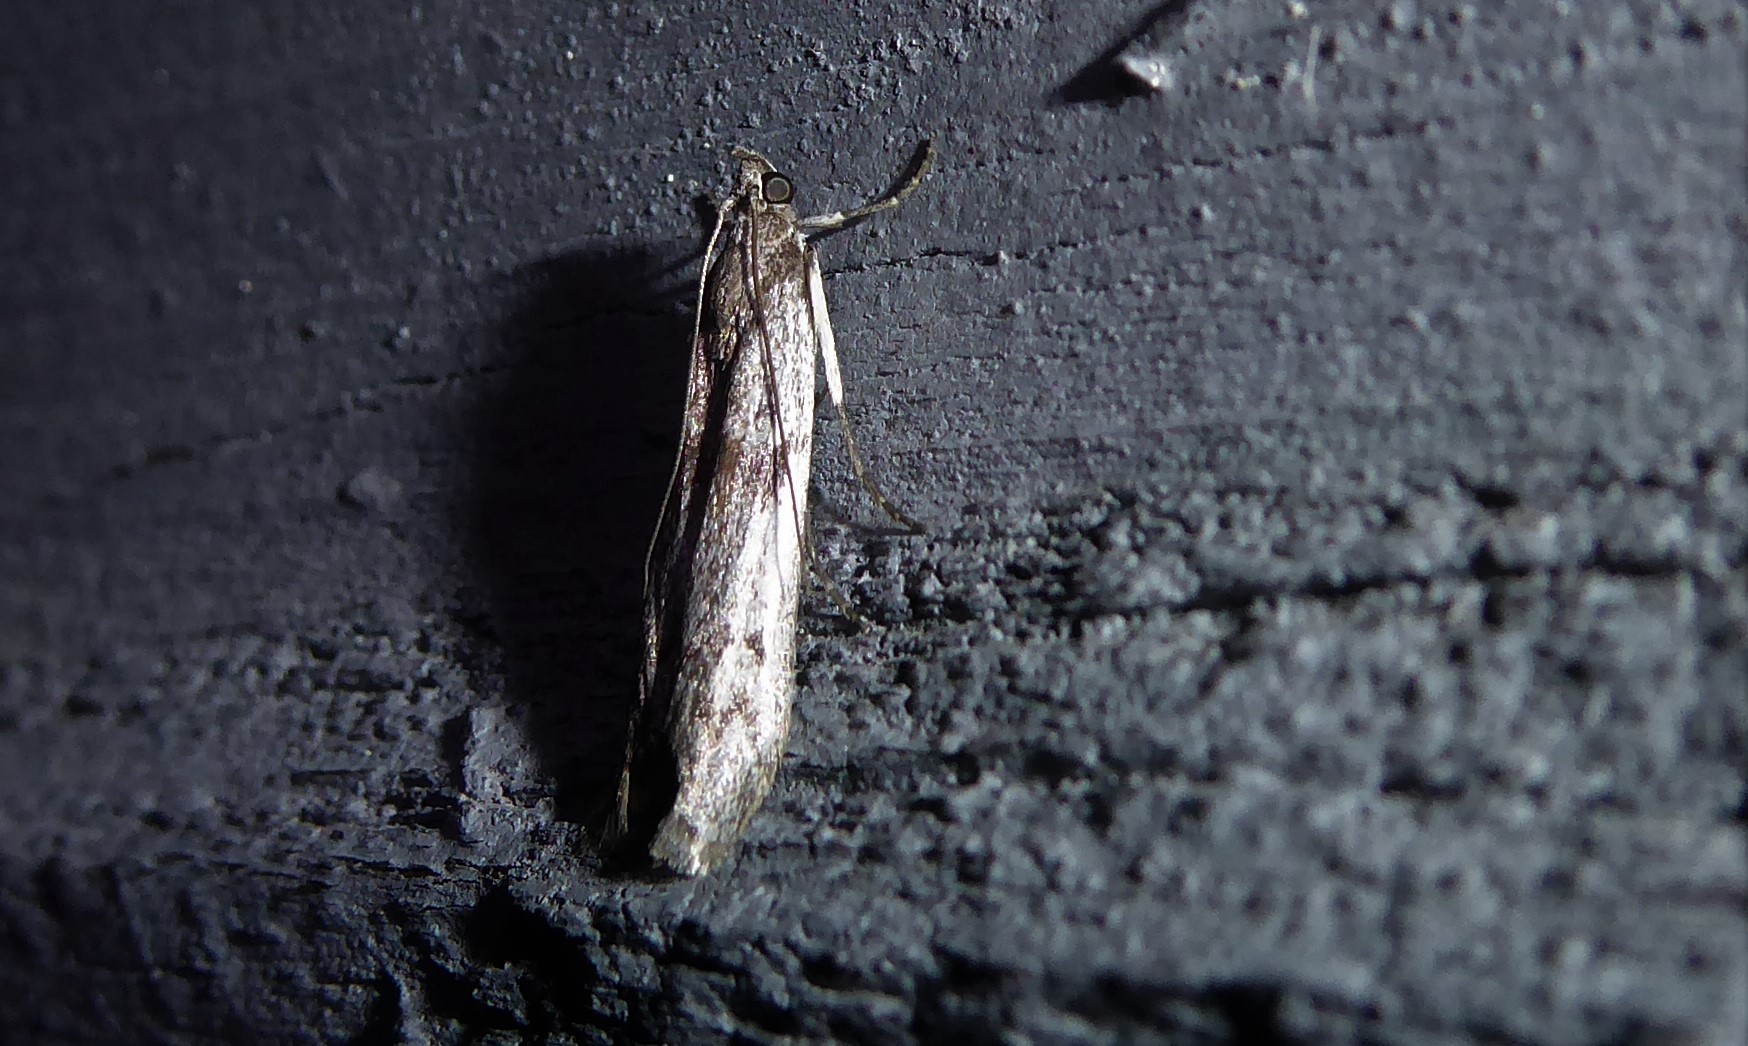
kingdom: Animalia
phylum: Arthropoda
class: Insecta
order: Lepidoptera
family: Pyralidae
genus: Patagoniodes
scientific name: Patagoniodes farinaria
